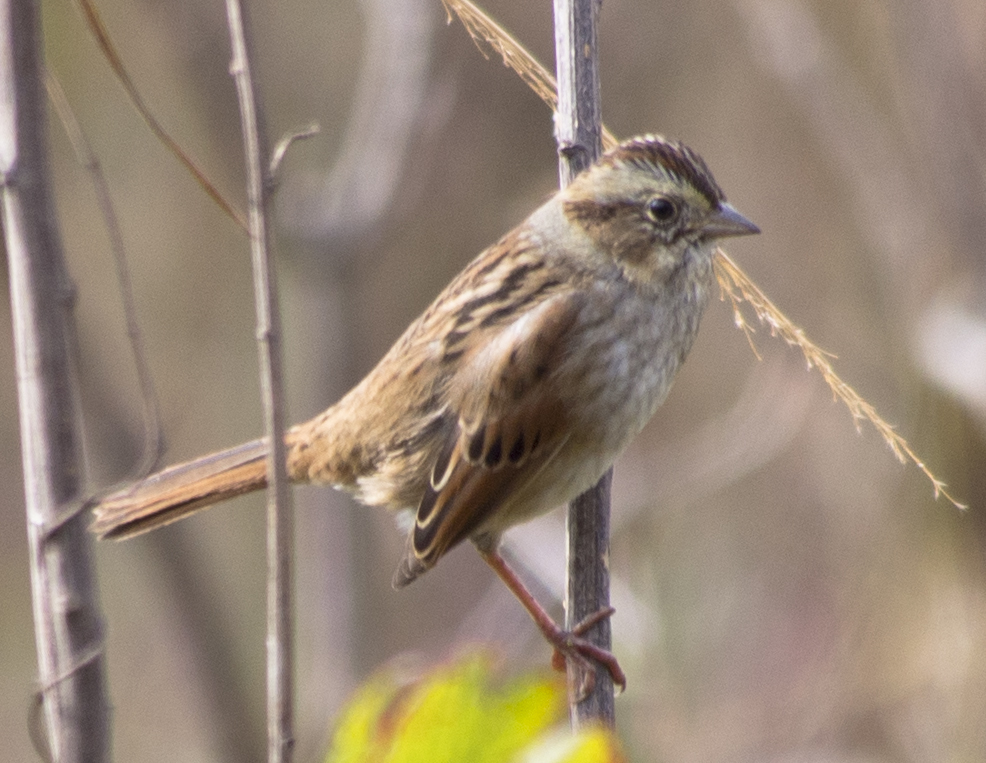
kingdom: Animalia
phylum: Chordata
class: Aves
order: Passeriformes
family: Passerellidae
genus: Melospiza
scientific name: Melospiza georgiana
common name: Swamp sparrow
